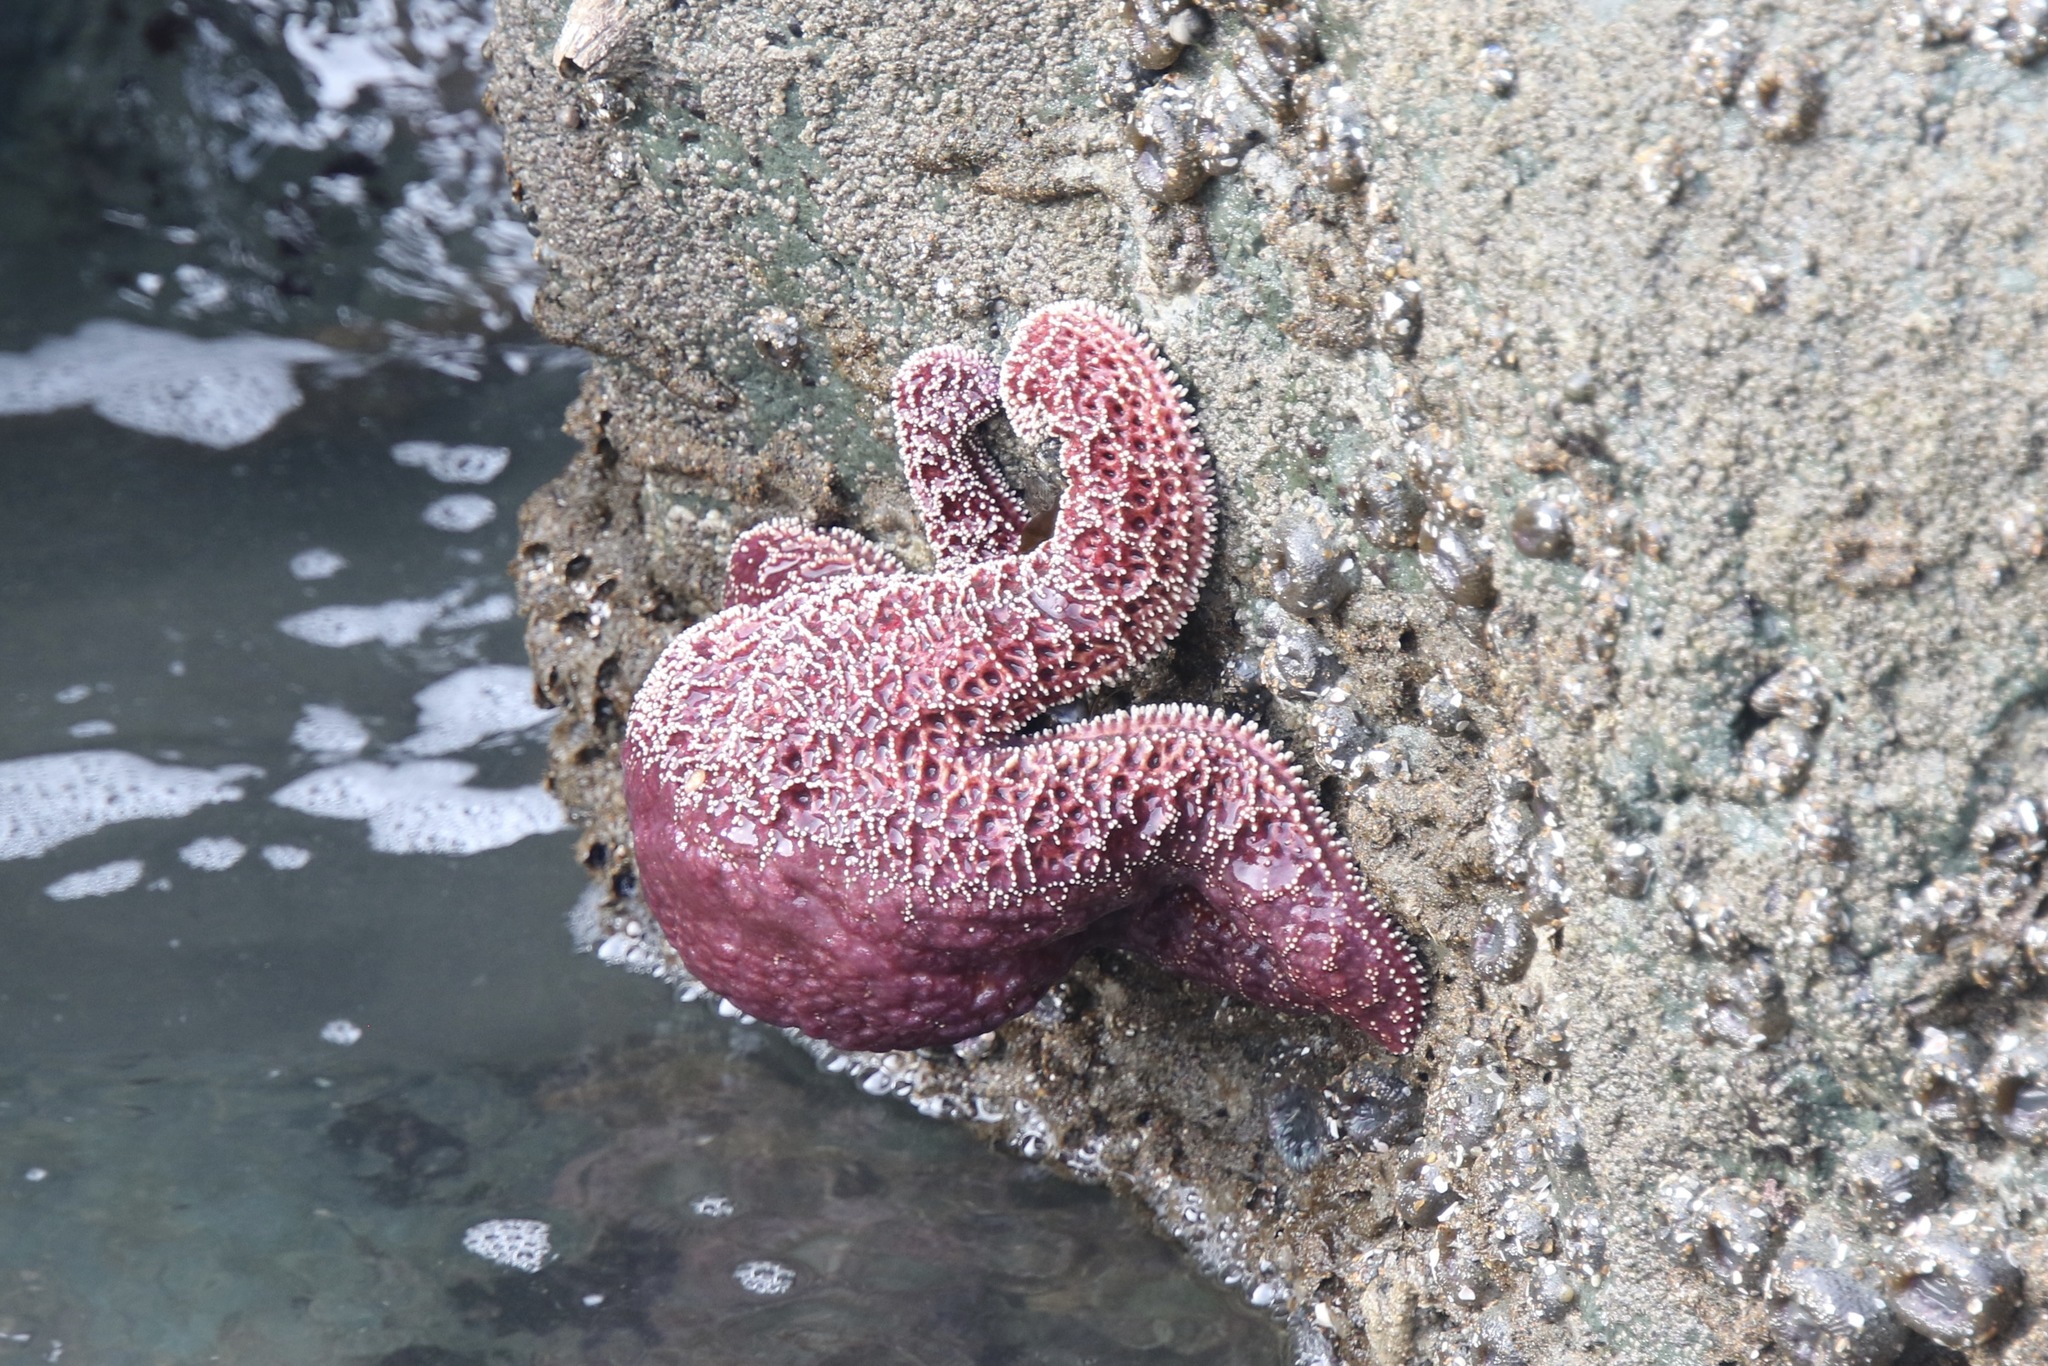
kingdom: Animalia
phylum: Echinodermata
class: Asteroidea
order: Forcipulatida
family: Asteriidae
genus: Pisaster
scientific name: Pisaster ochraceus
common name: Ochre stars
